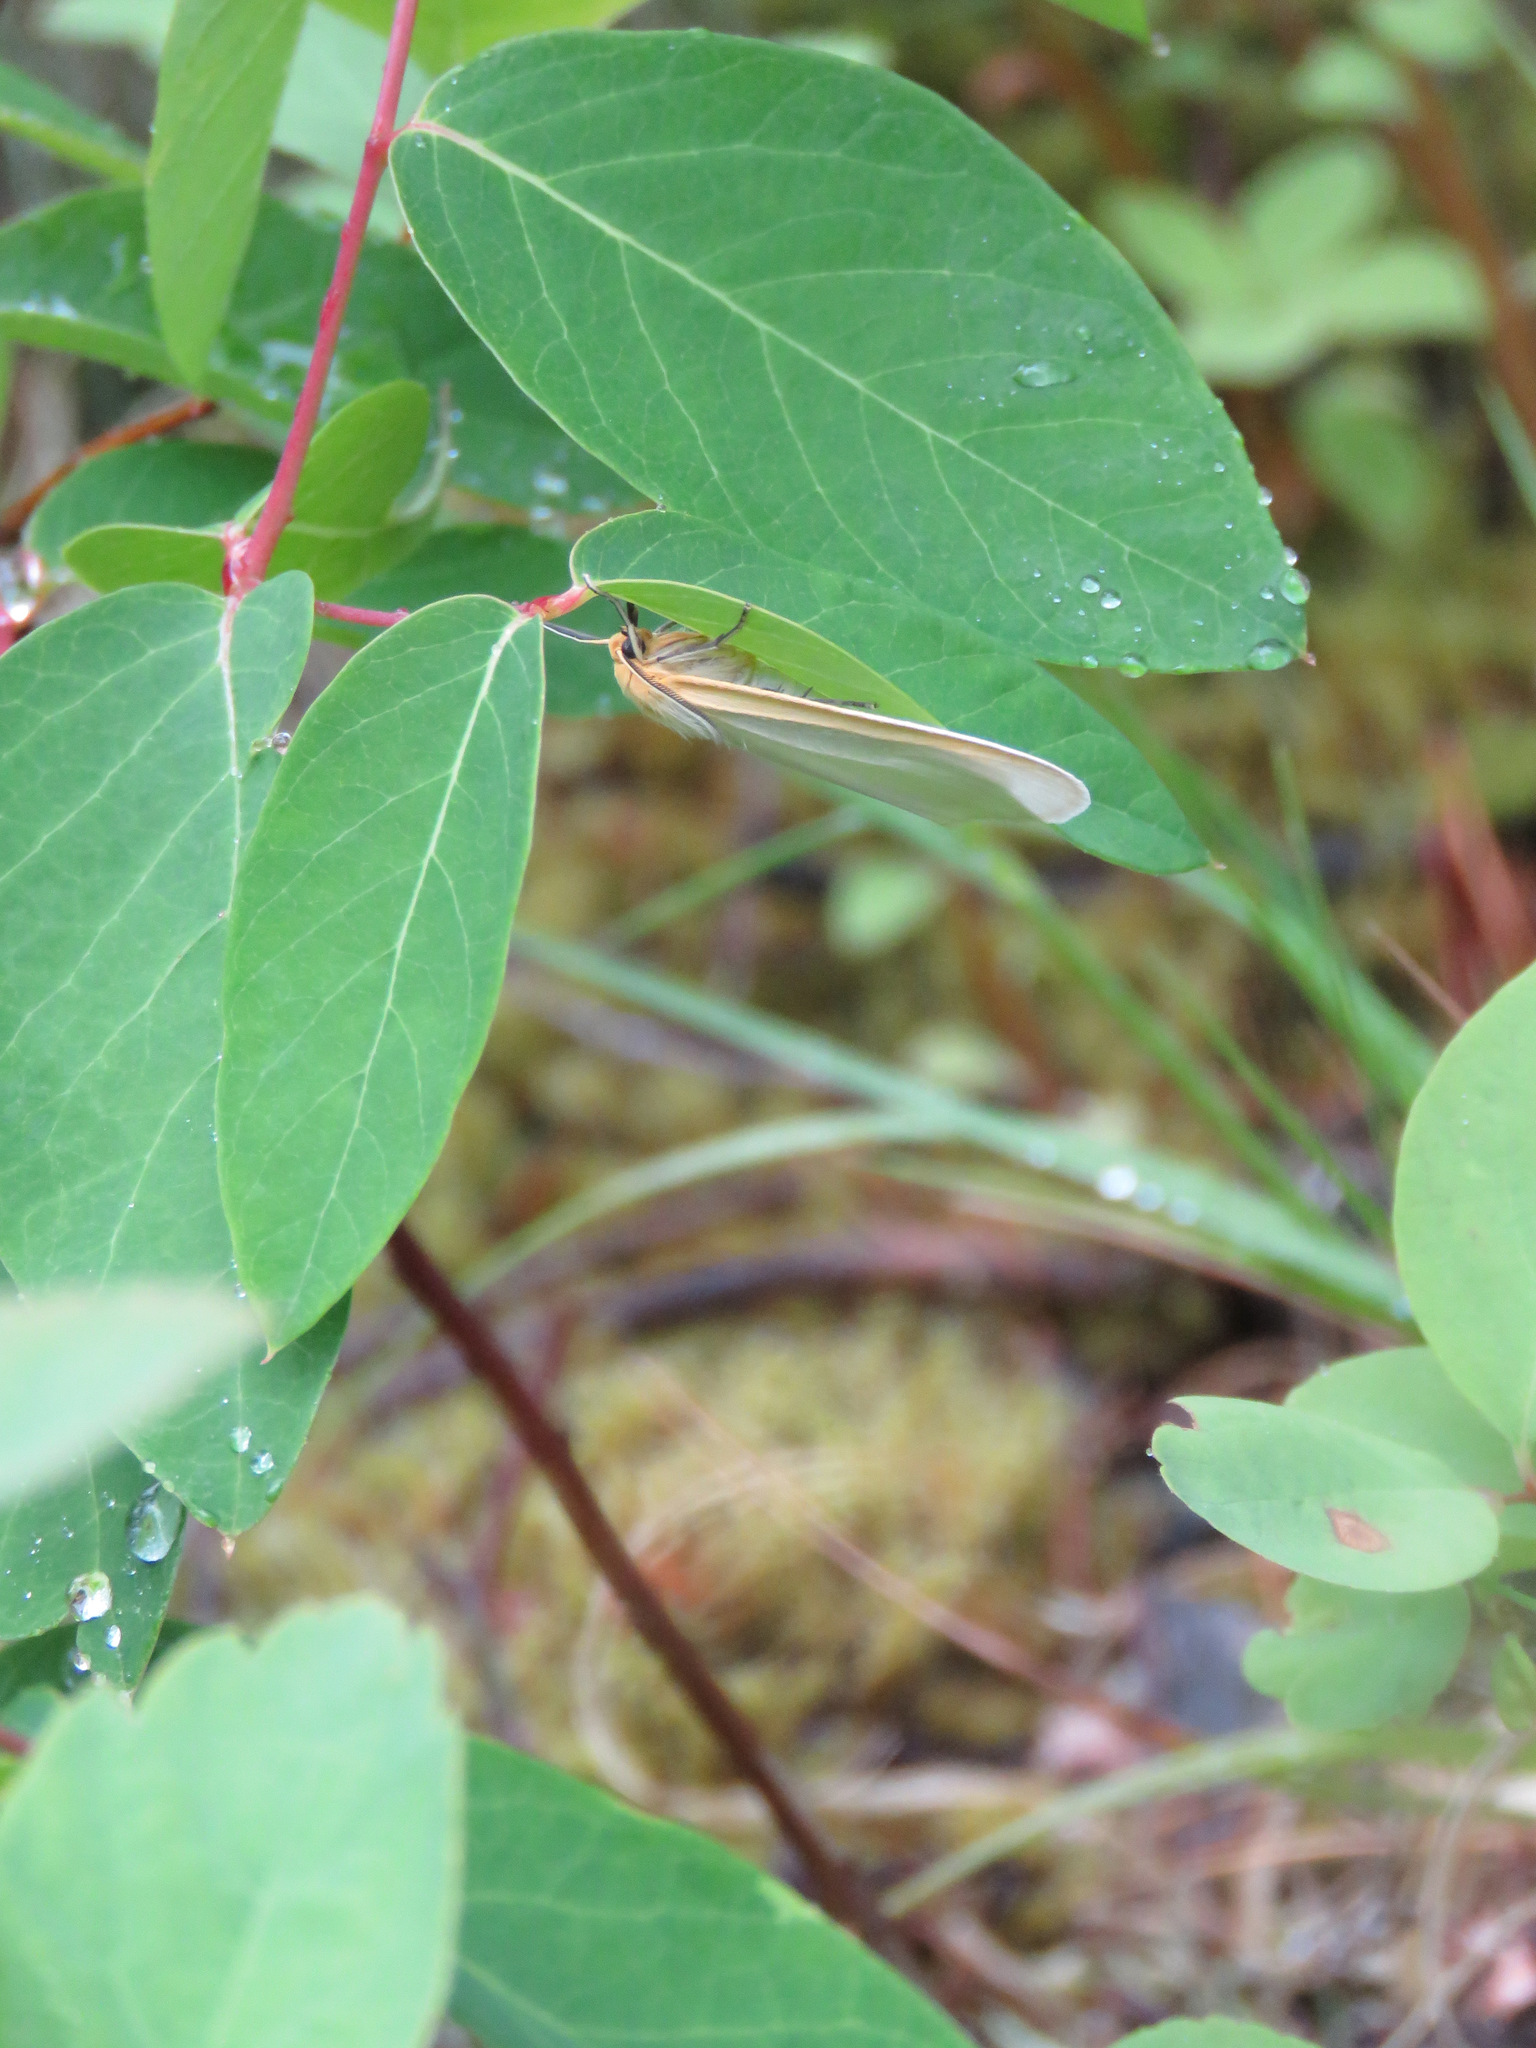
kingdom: Animalia
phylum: Arthropoda
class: Insecta
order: Lepidoptera
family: Erebidae
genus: Cycnia
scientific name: Cycnia tenera
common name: Delicate cycnia moth
